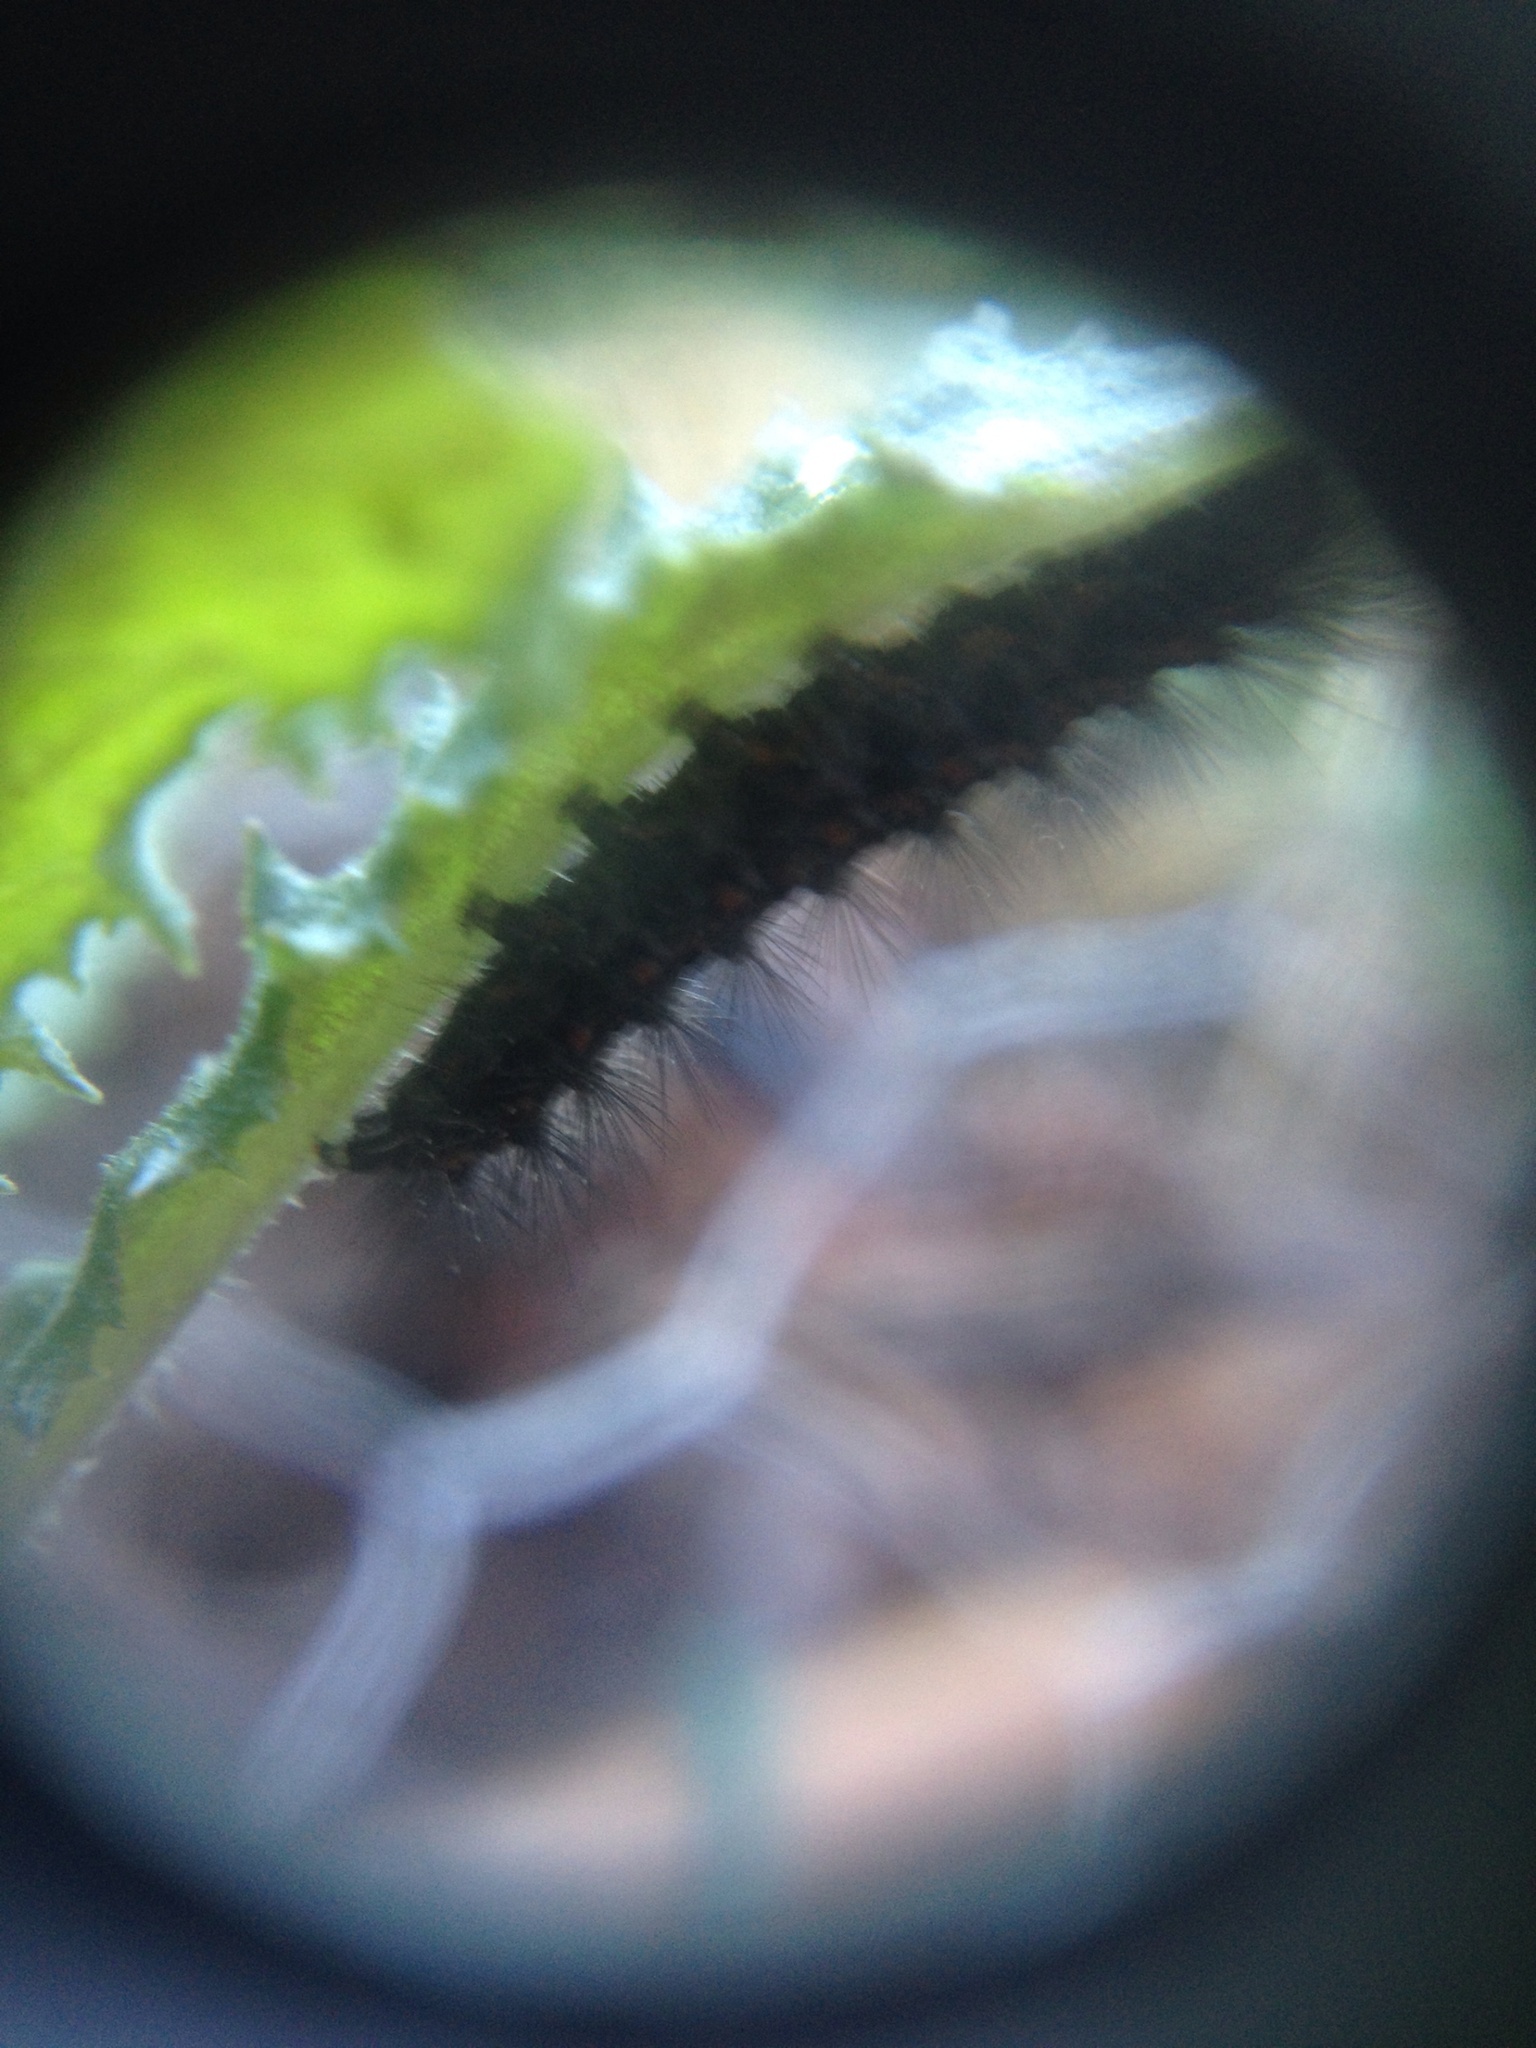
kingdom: Animalia
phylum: Arthropoda
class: Insecta
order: Lepidoptera
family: Erebidae
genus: Nyctemera
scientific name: Nyctemera annulatum
